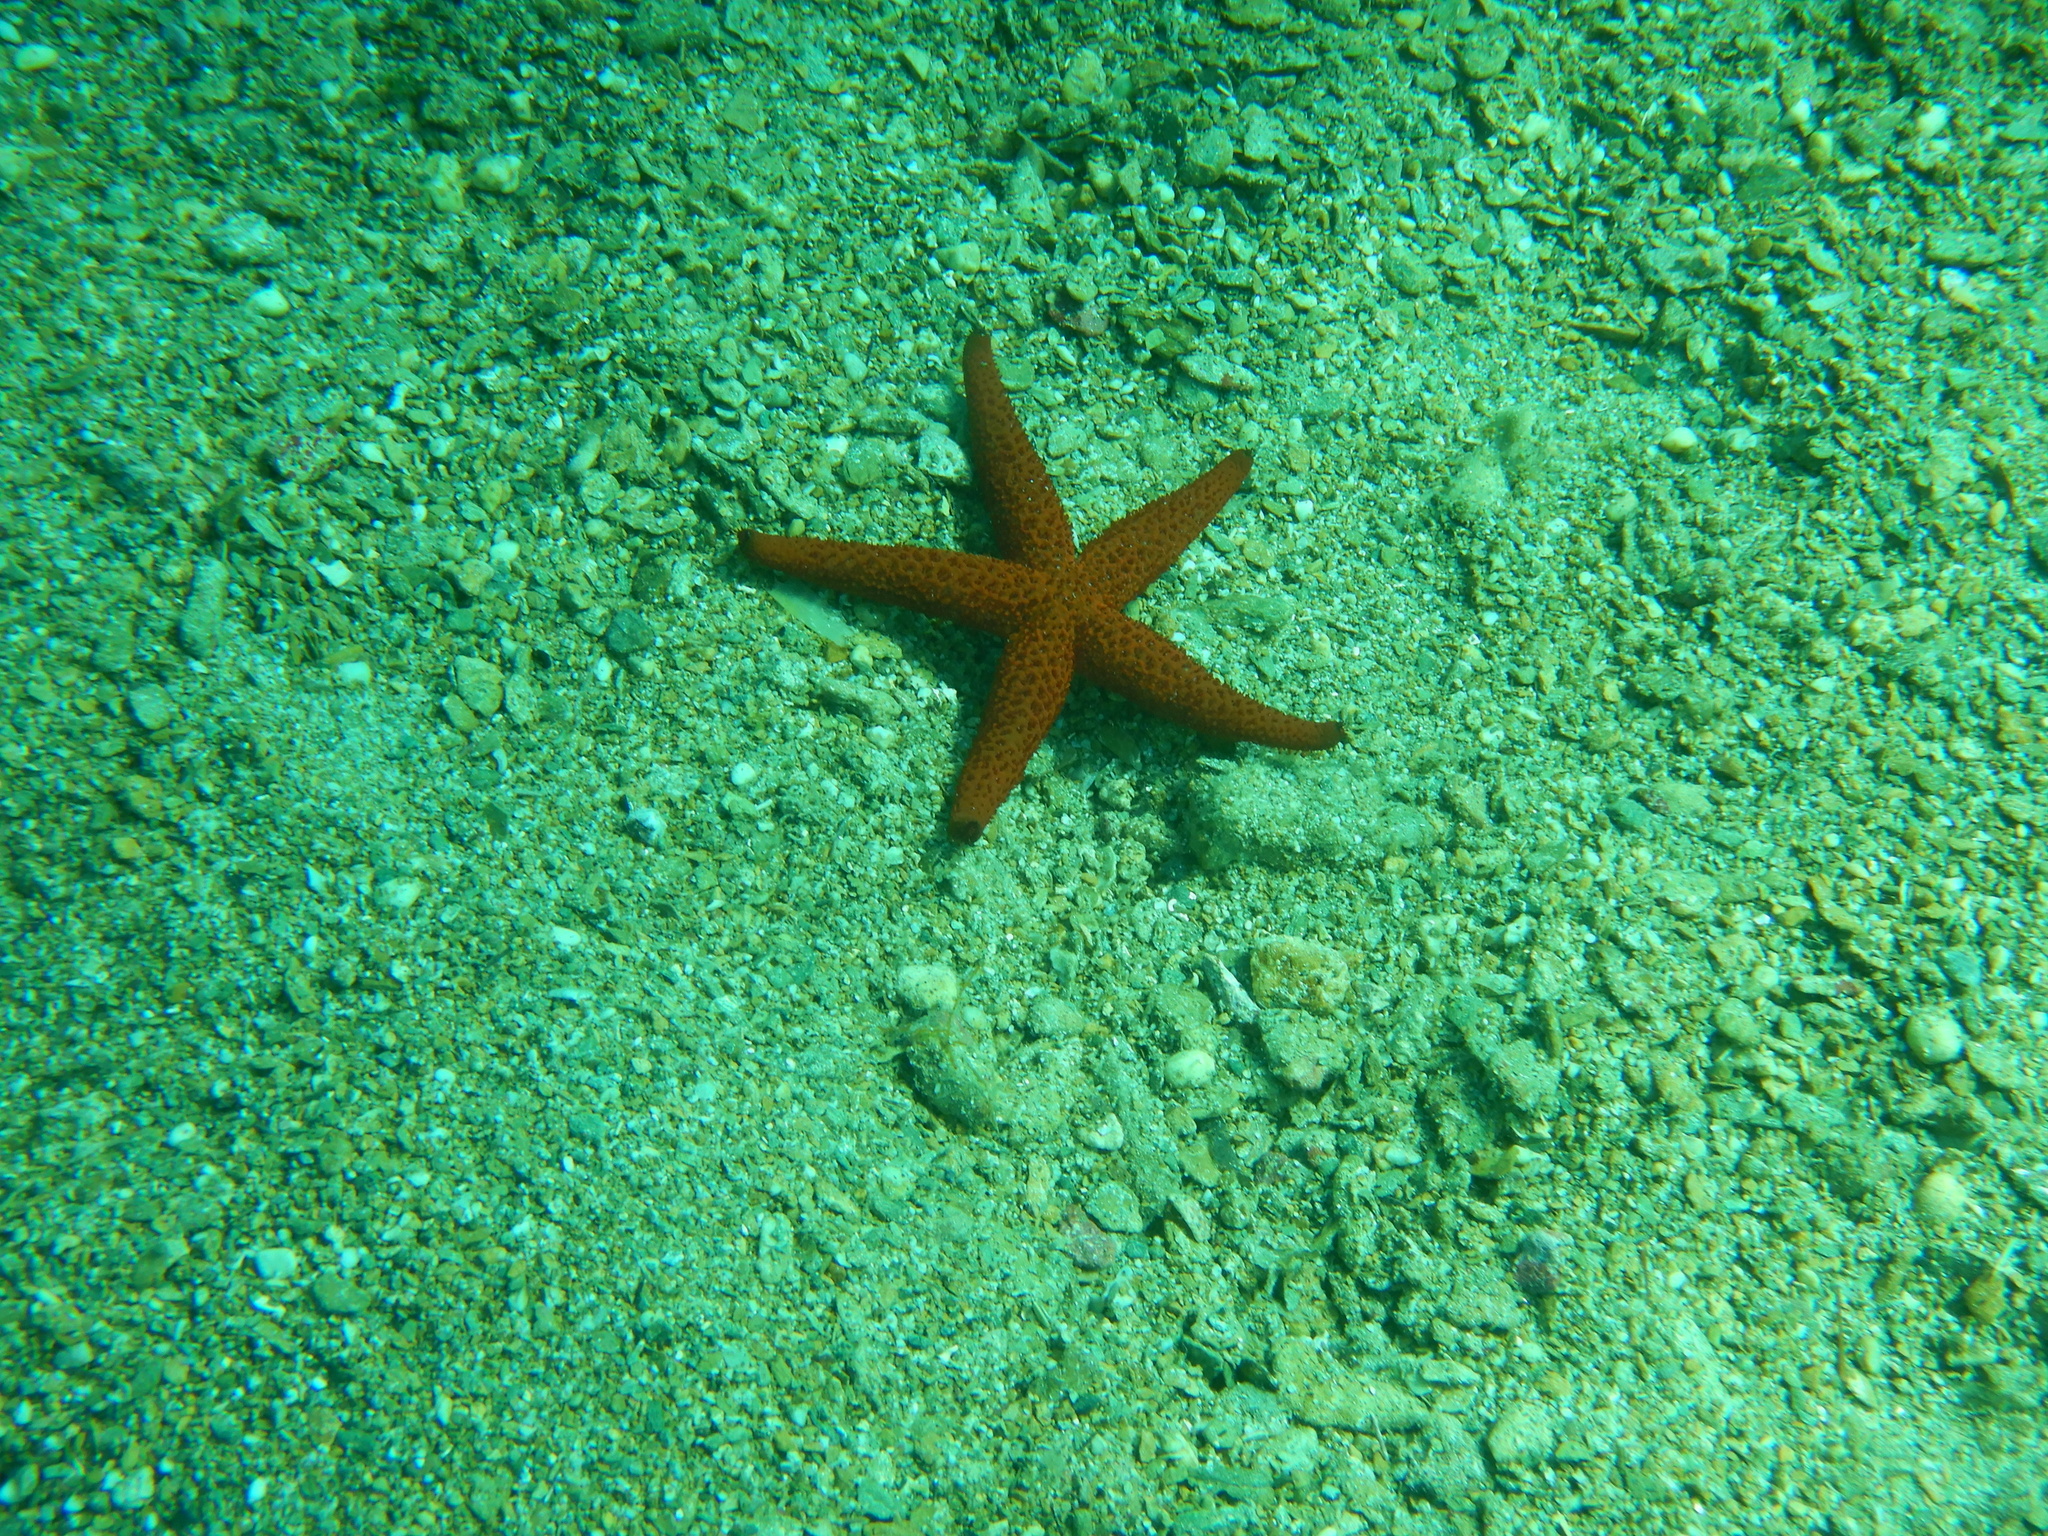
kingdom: Animalia
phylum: Echinodermata
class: Asteroidea
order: Spinulosida
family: Echinasteridae
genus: Echinaster
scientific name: Echinaster sepositus
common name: Red starfish
